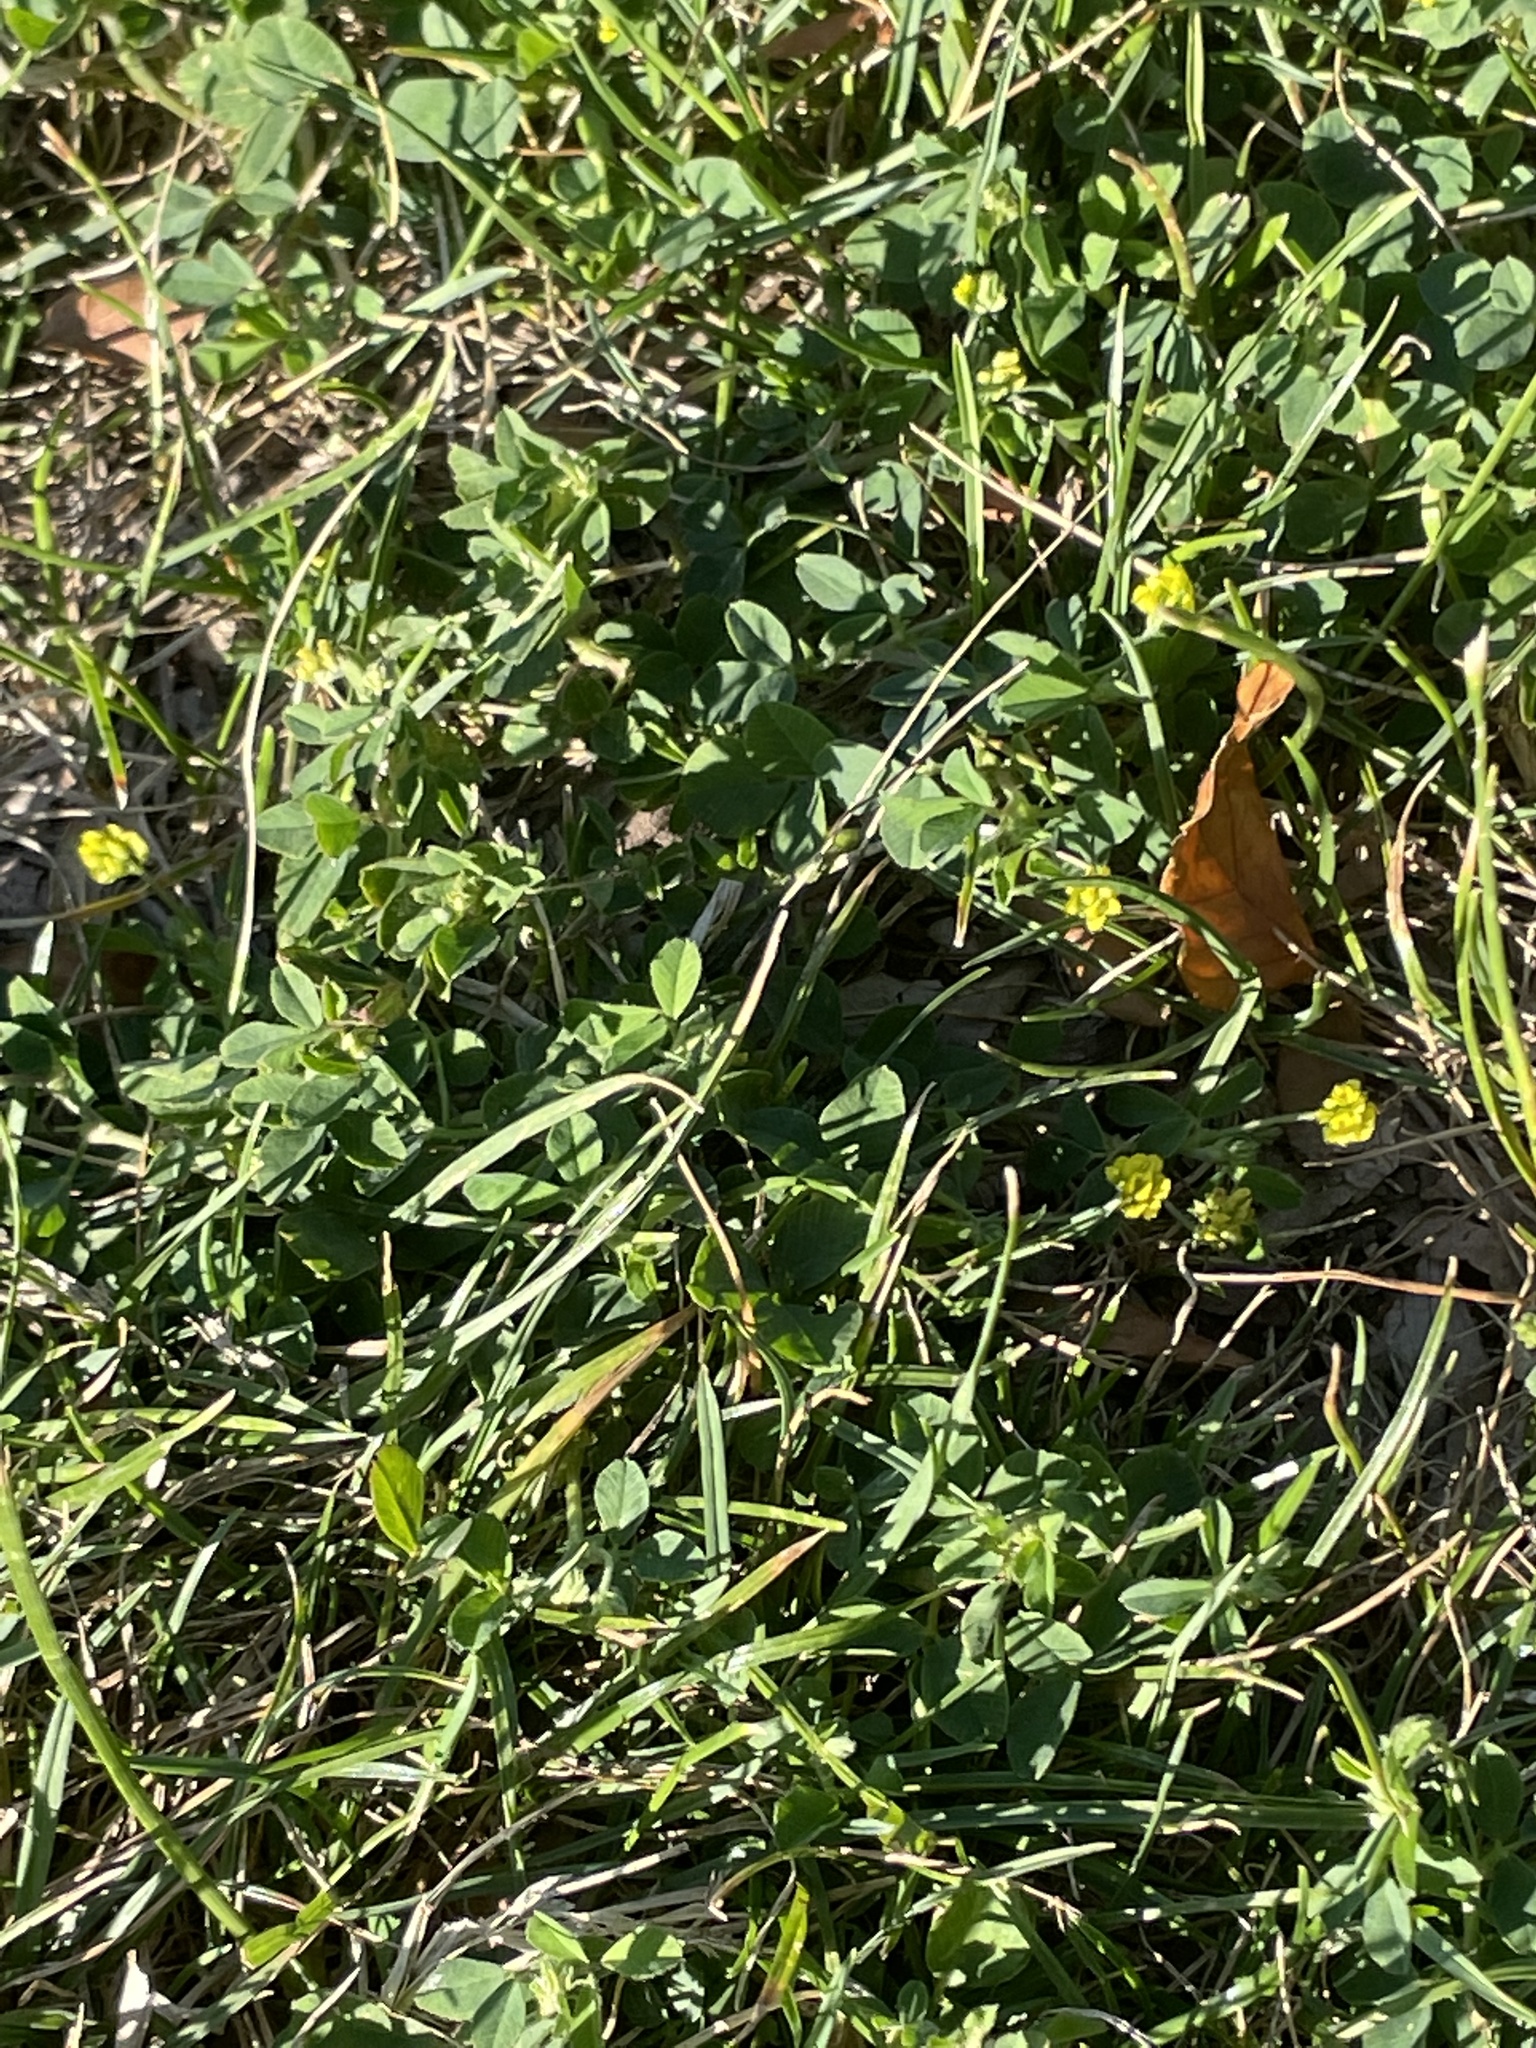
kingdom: Plantae
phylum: Tracheophyta
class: Magnoliopsida
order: Fabales
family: Fabaceae
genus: Medicago
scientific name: Medicago lupulina
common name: Black medick
